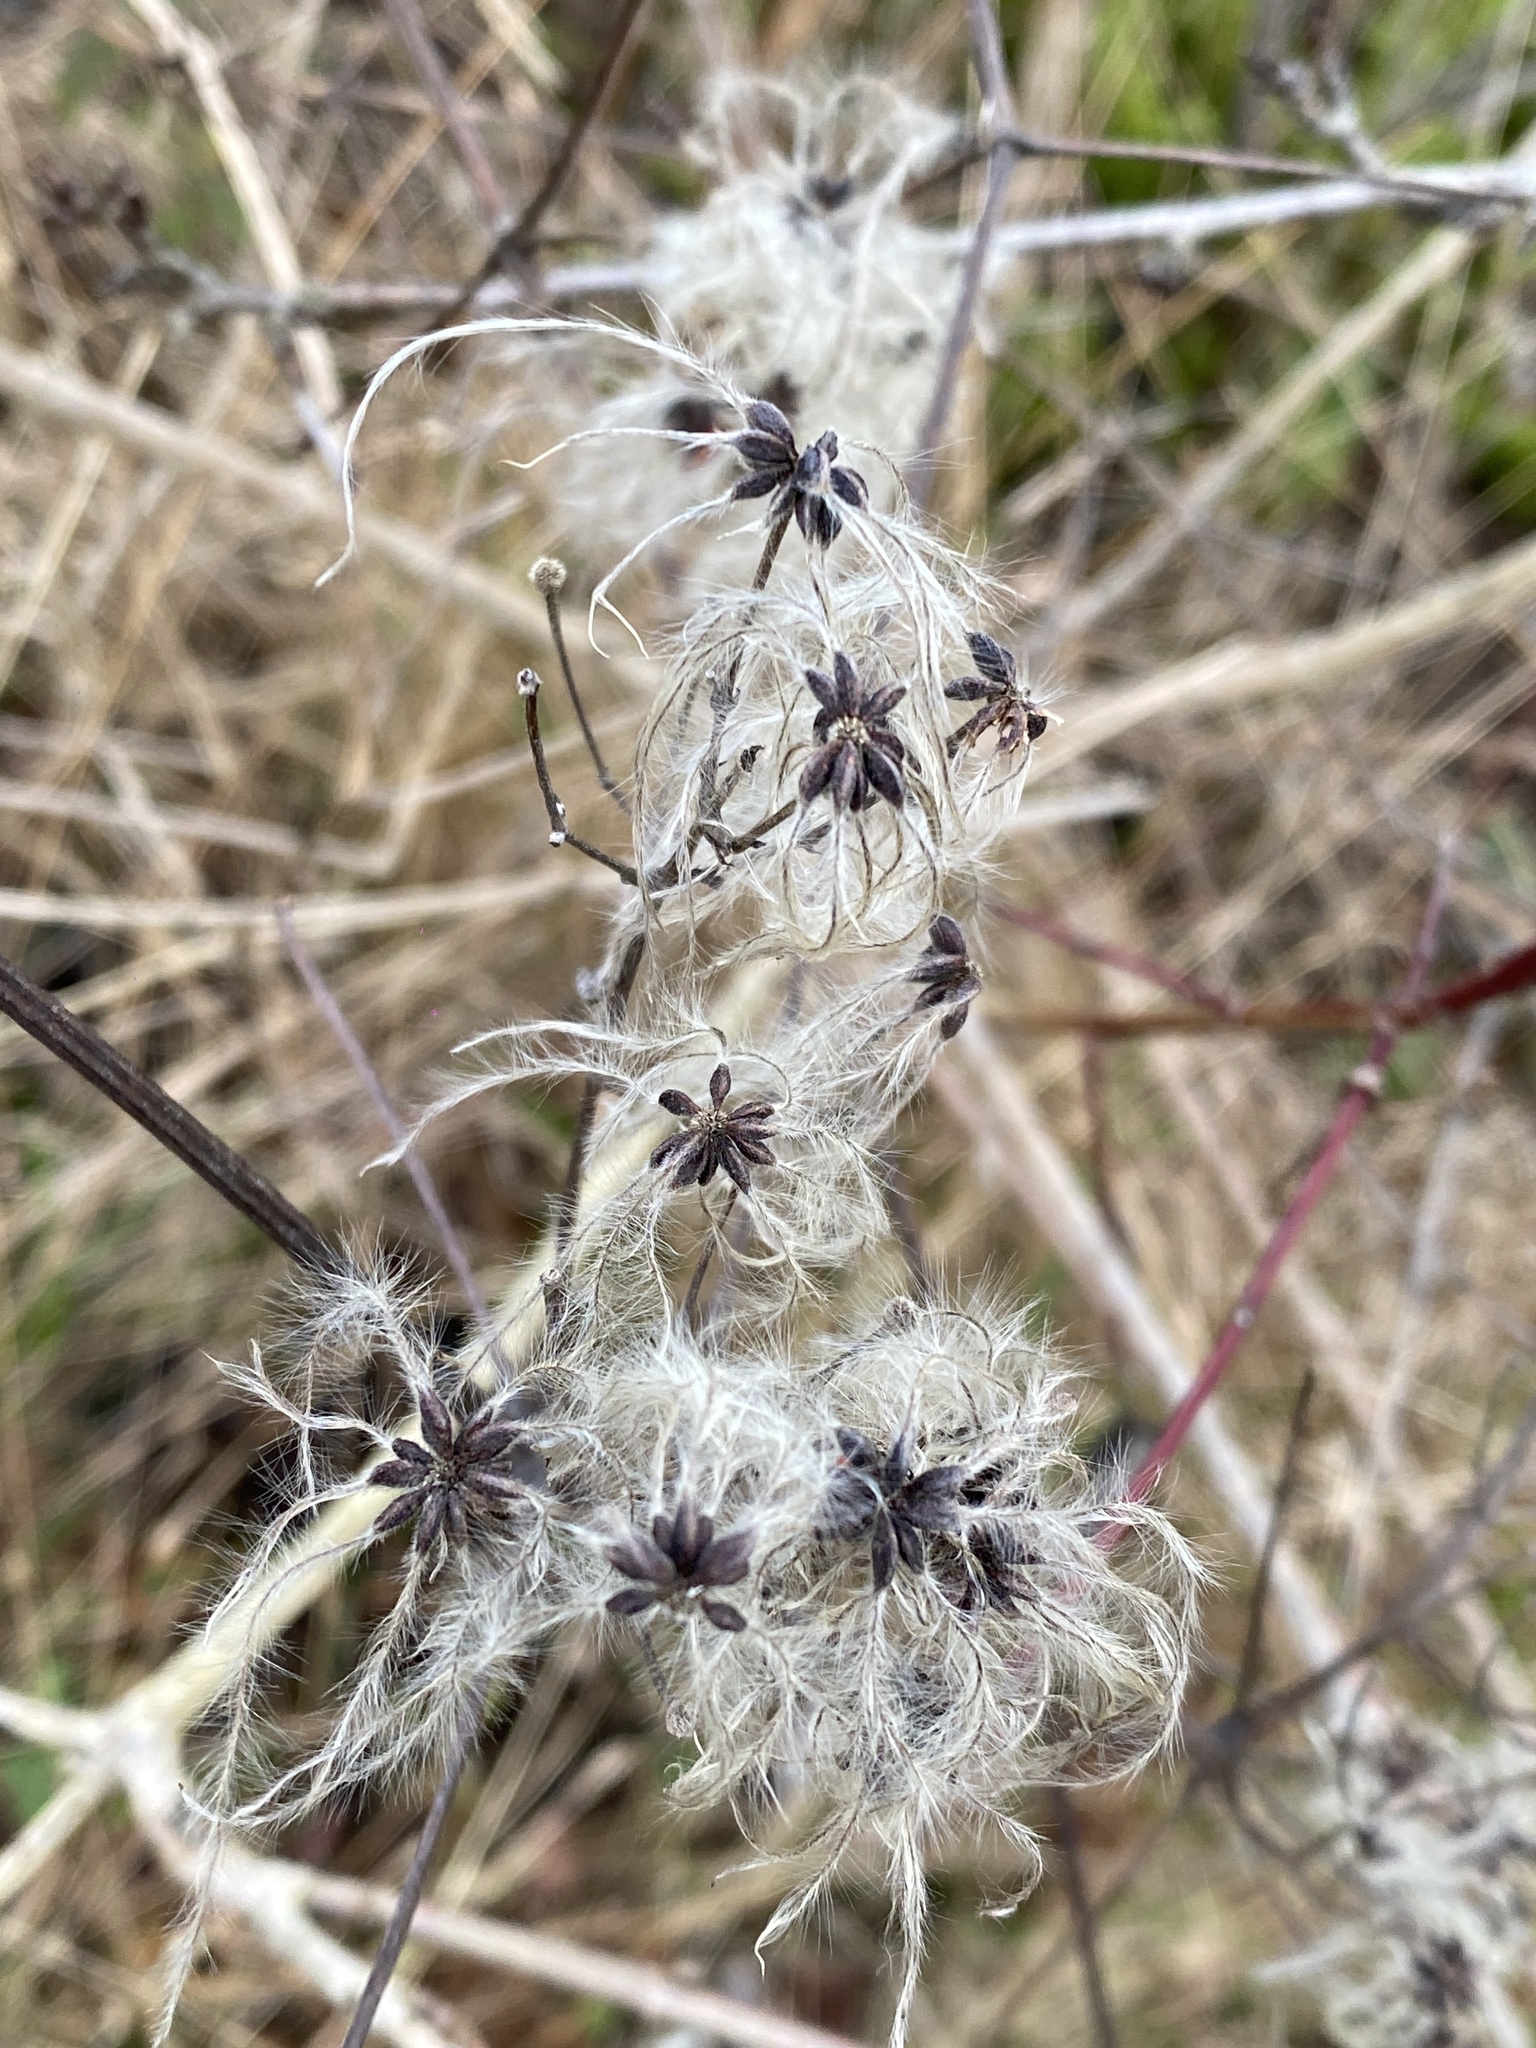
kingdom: Plantae
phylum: Tracheophyta
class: Magnoliopsida
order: Ranunculales
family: Ranunculaceae
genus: Clematis
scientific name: Clematis vitalba
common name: Evergreen clematis
